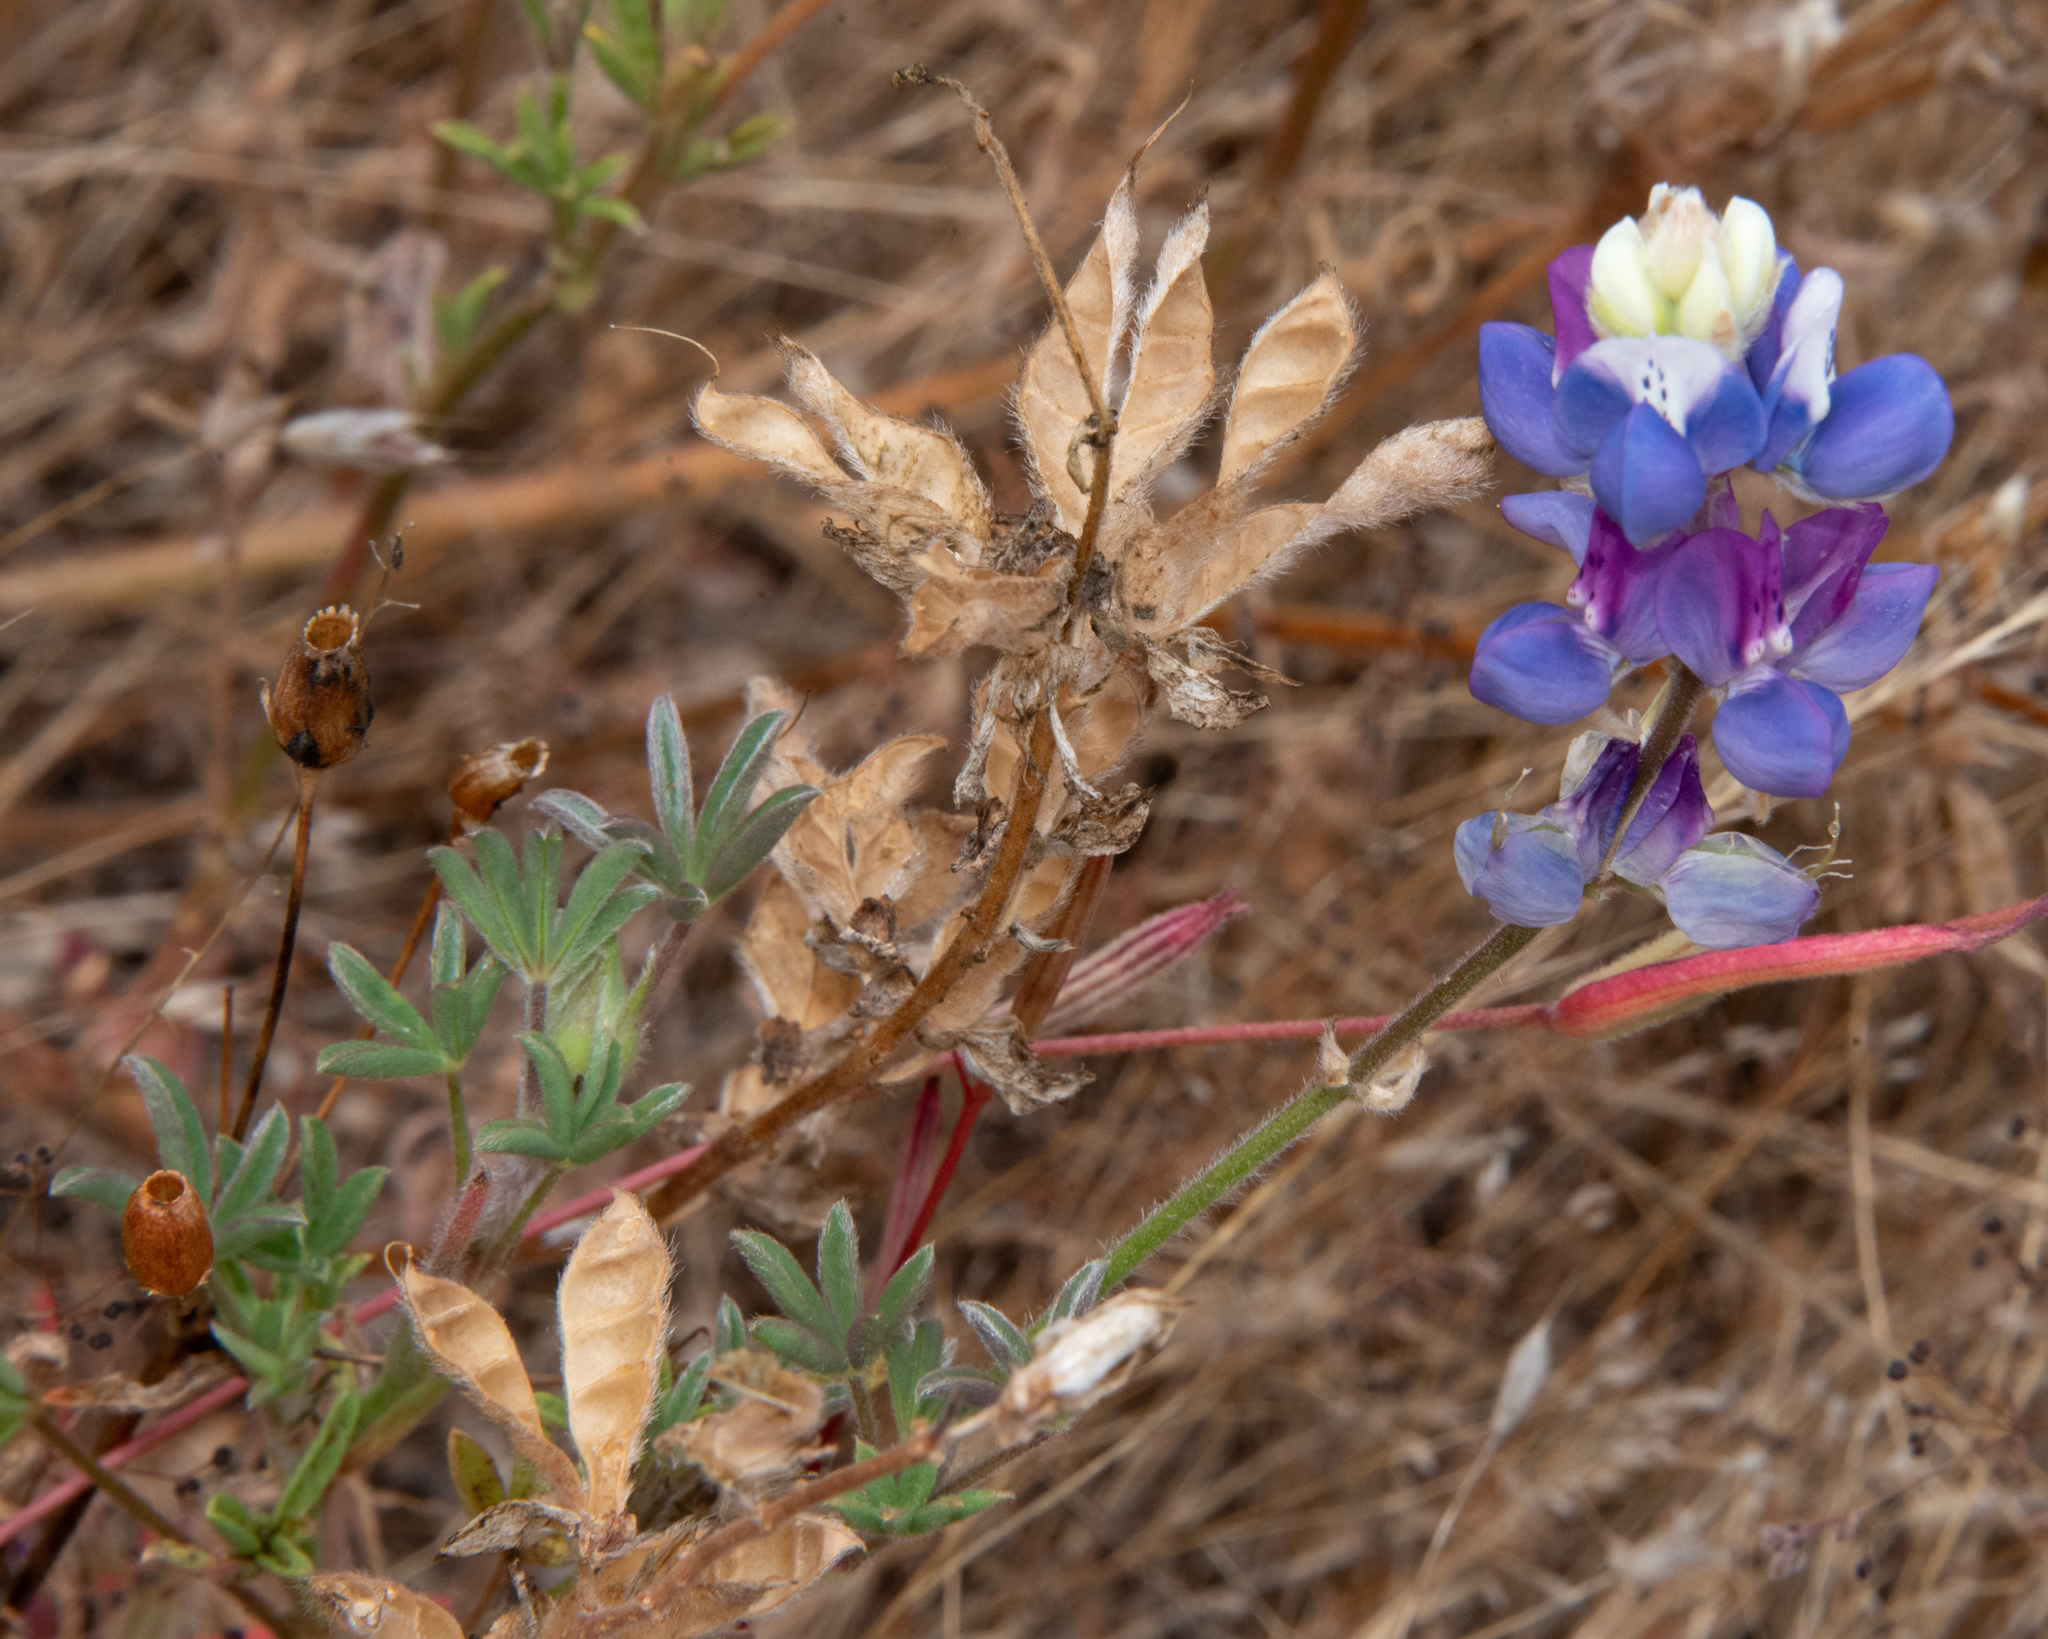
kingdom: Plantae
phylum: Tracheophyta
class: Magnoliopsida
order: Fabales
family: Fabaceae
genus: Lupinus
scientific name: Lupinus nanus
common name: Orean blue lupin
